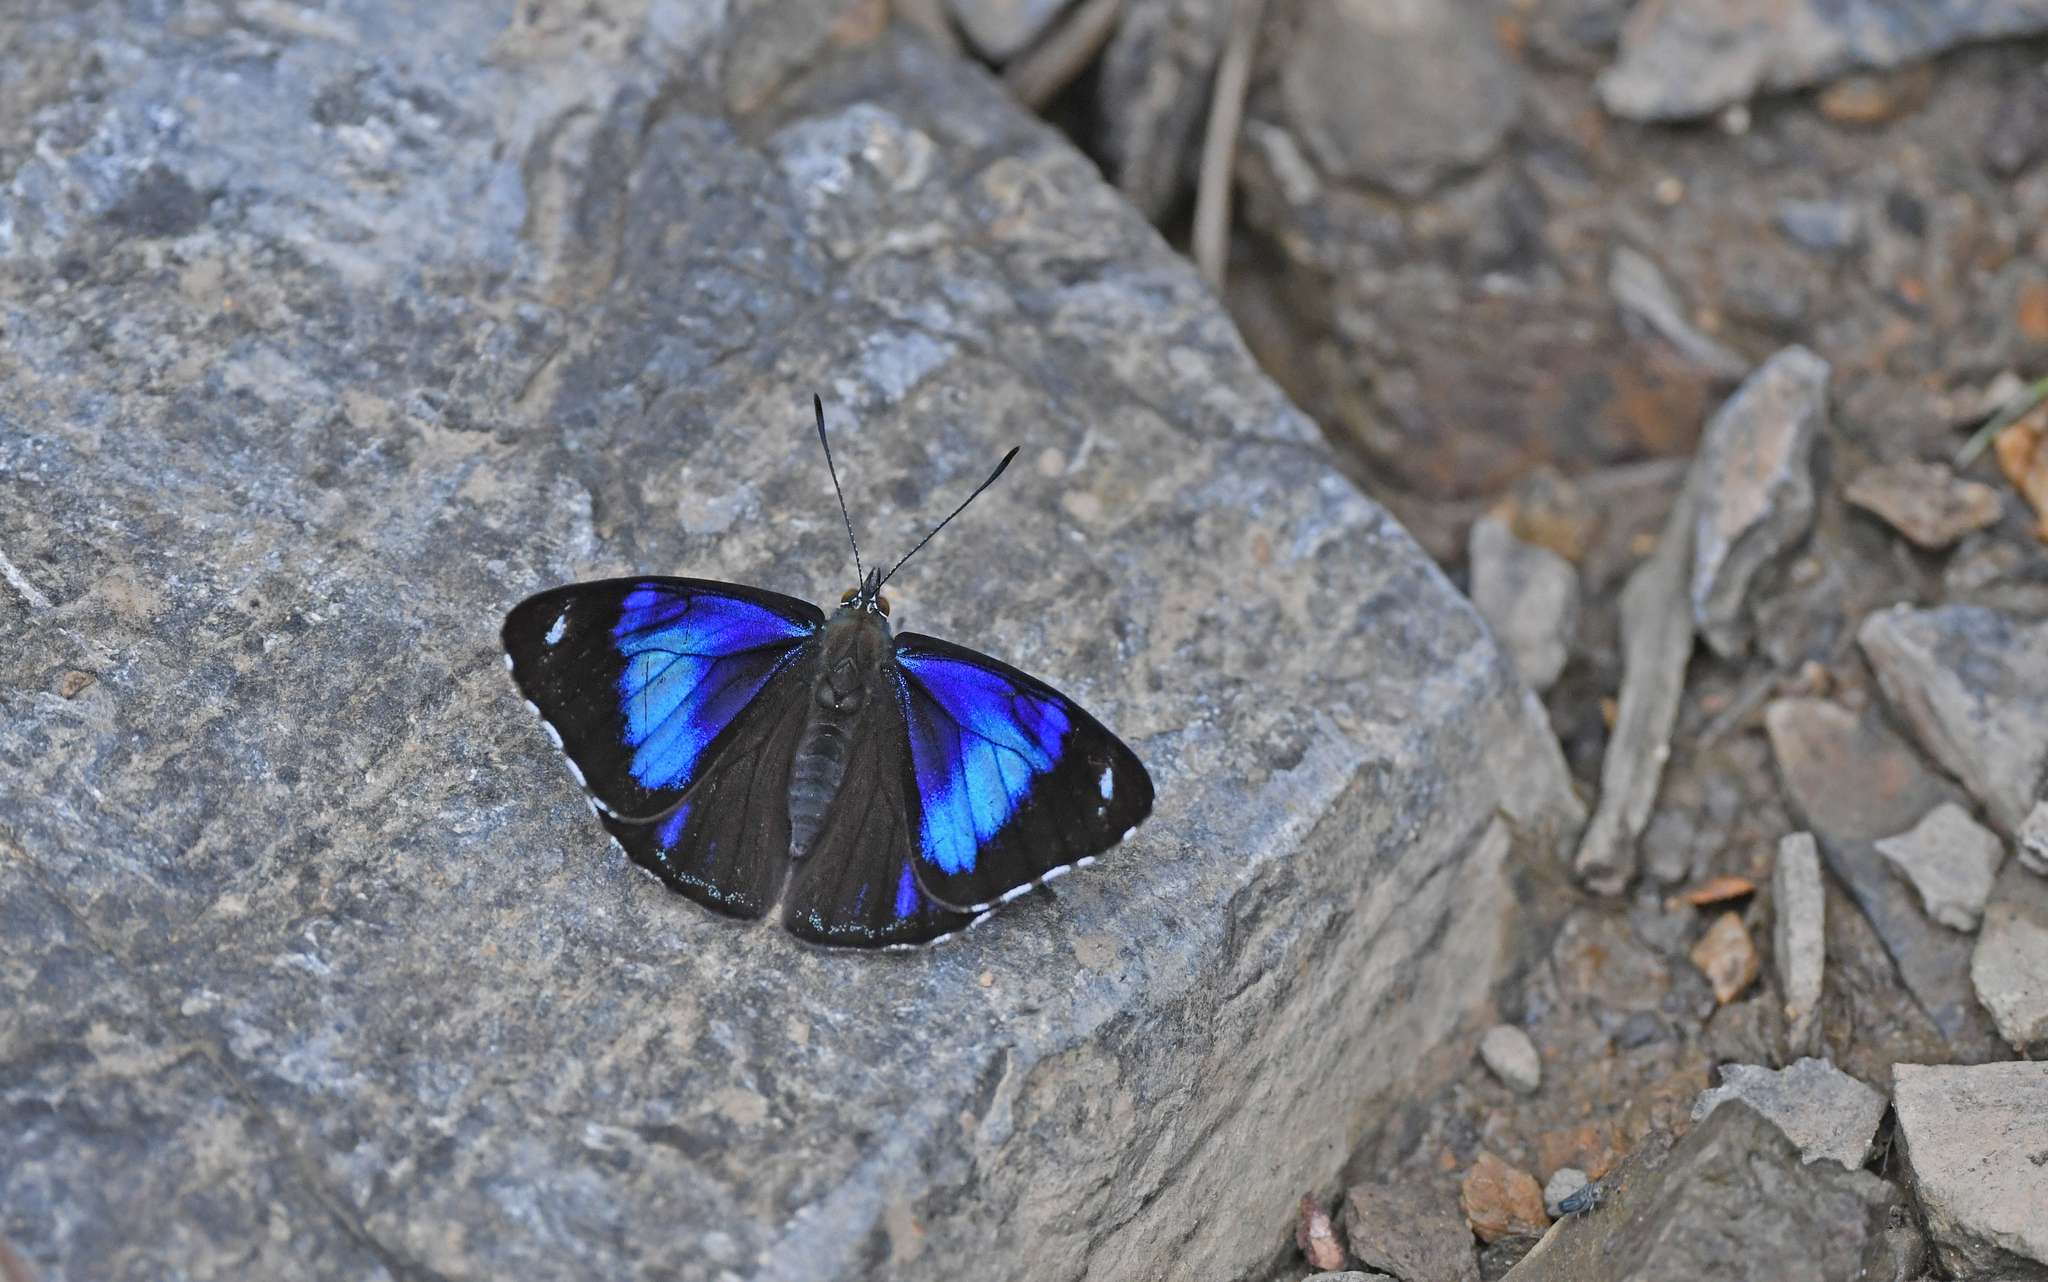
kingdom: Animalia
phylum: Arthropoda
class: Insecta
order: Lepidoptera
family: Nymphalidae
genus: Perisama
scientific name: Perisama philinus
